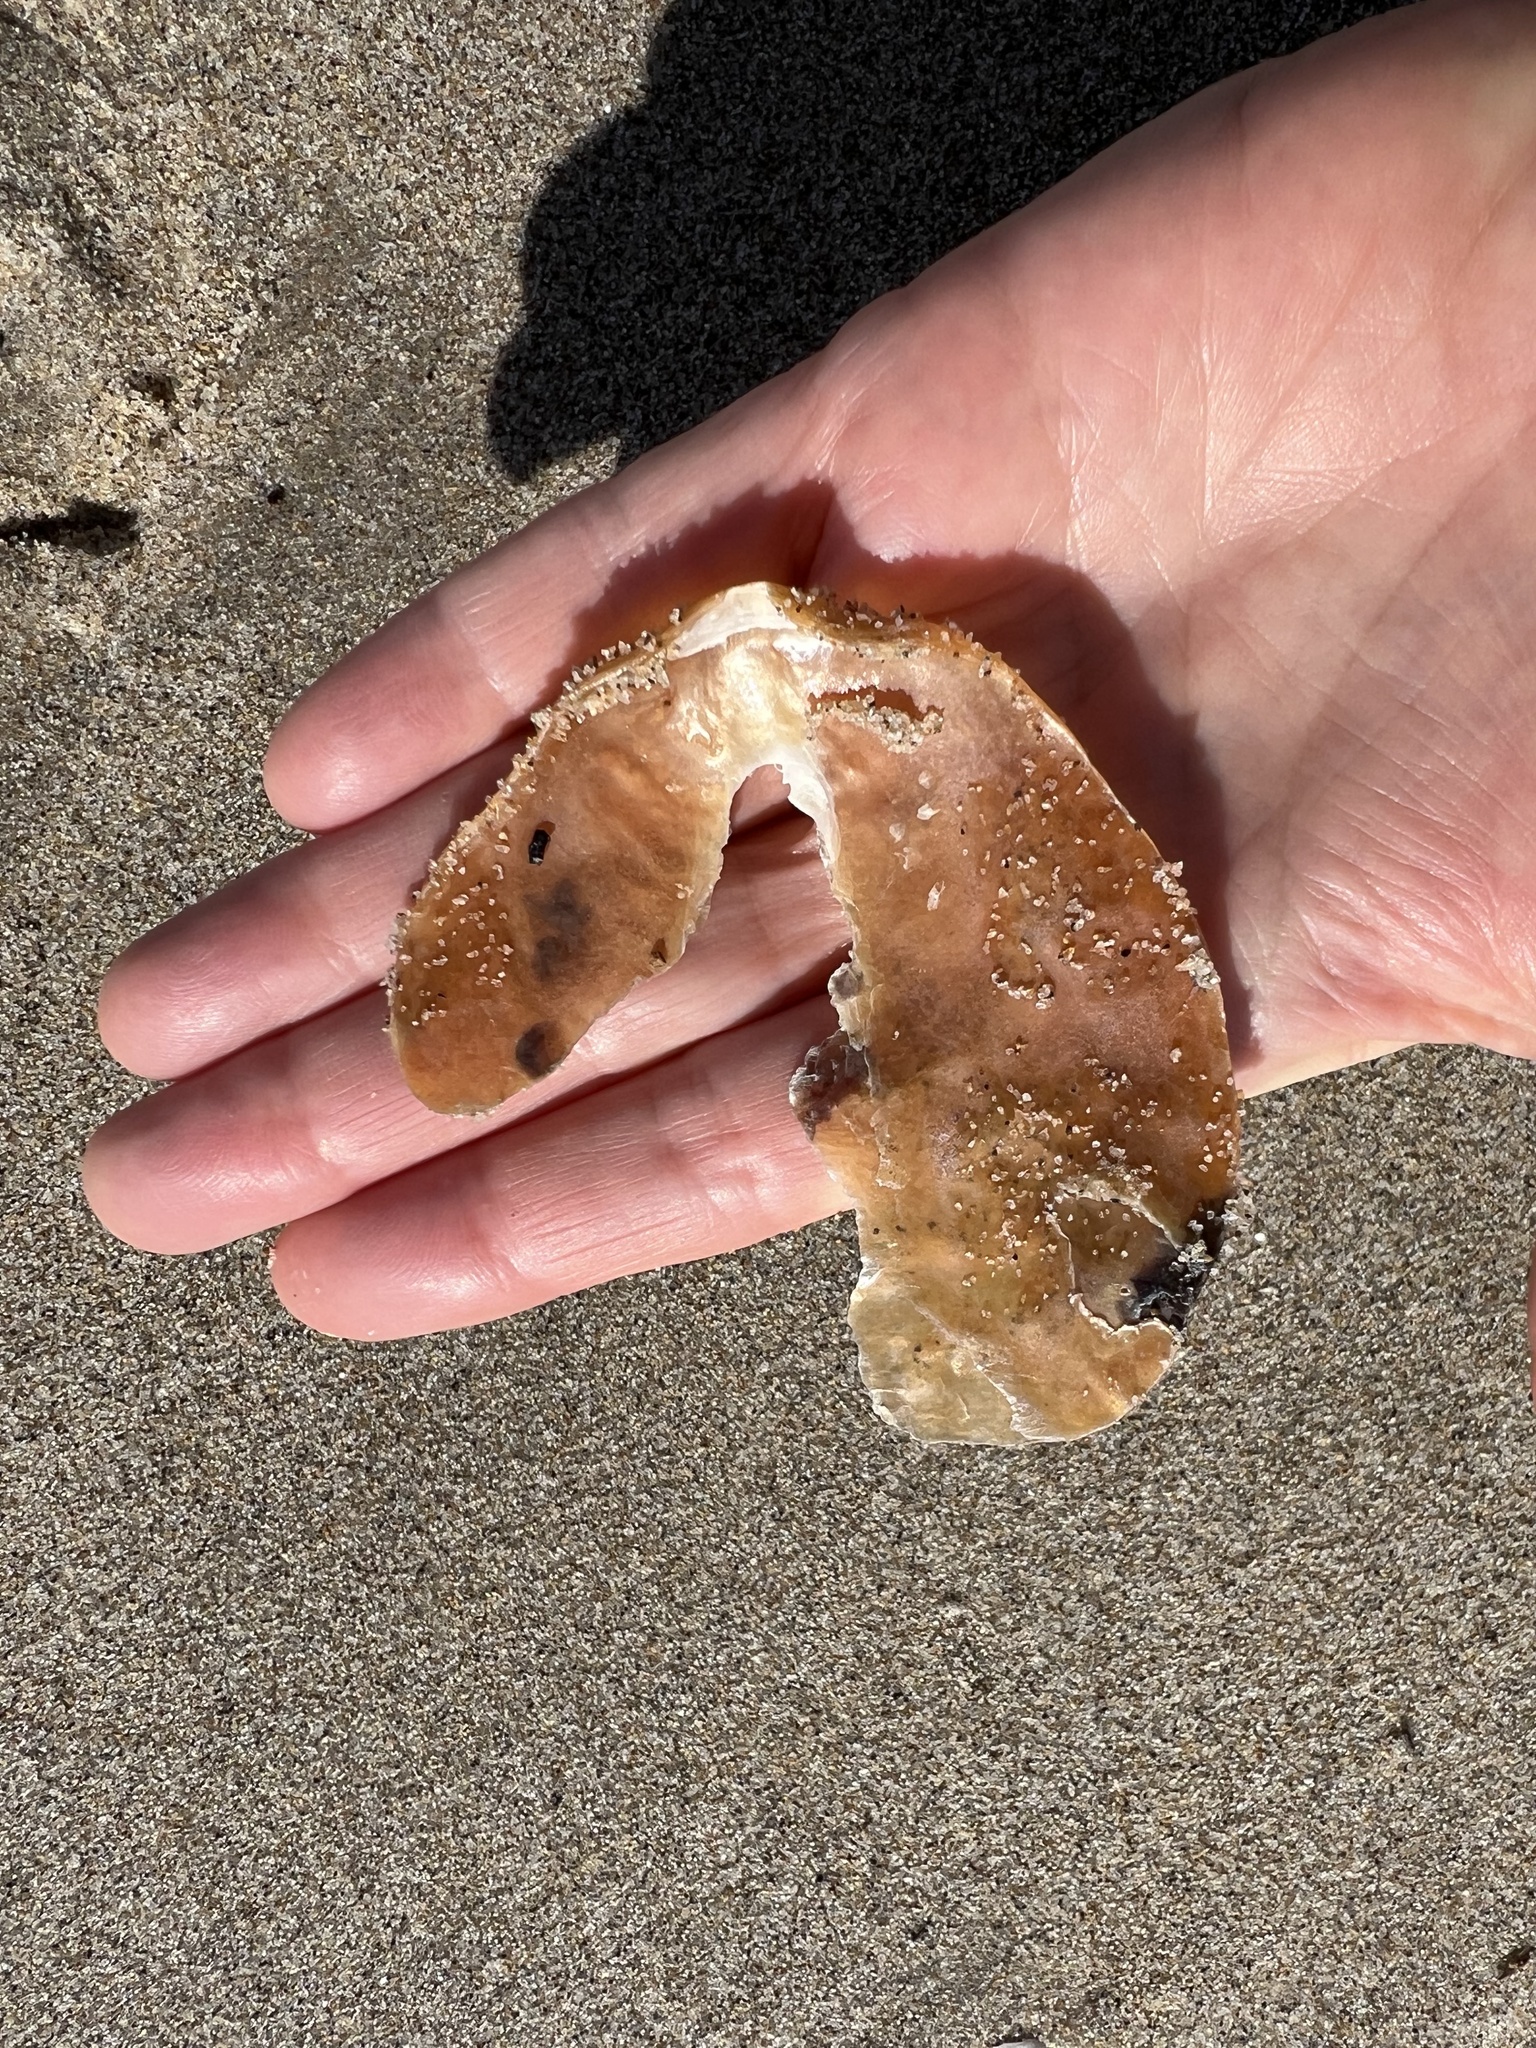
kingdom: Animalia
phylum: Mollusca
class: Bivalvia
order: Pectinida
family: Anomiidae
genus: Anomia
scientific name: Anomia peruviana
